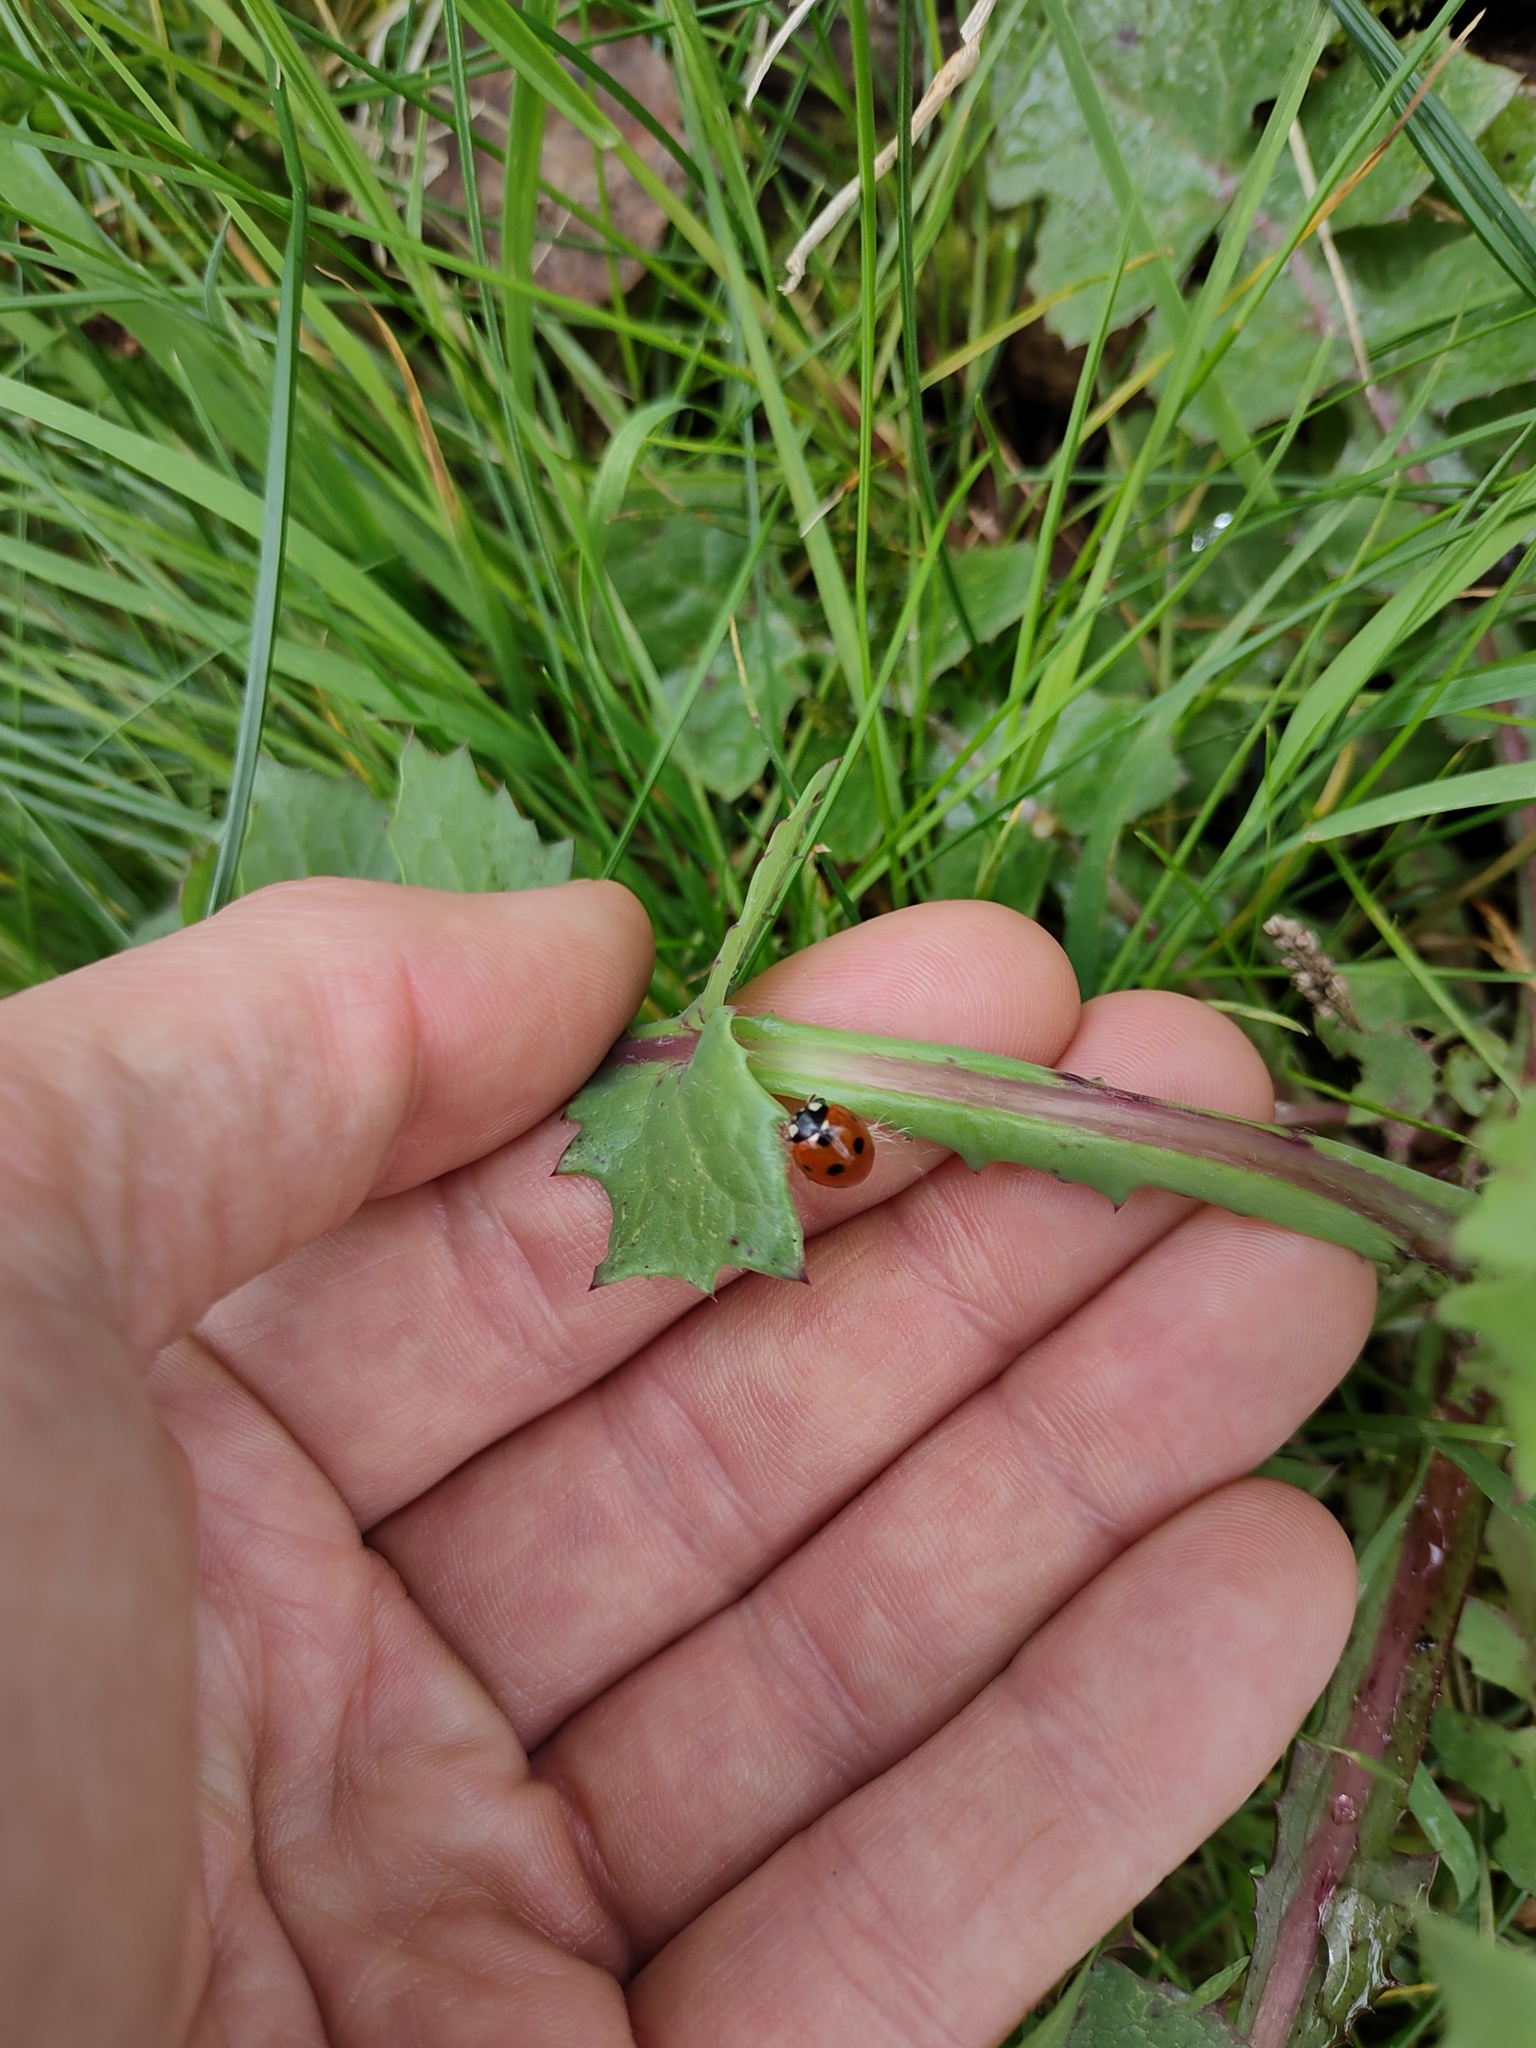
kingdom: Animalia
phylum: Arthropoda
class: Insecta
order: Coleoptera
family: Coccinellidae
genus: Coccinella
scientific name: Coccinella septempunctata
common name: Sevenspotted lady beetle
